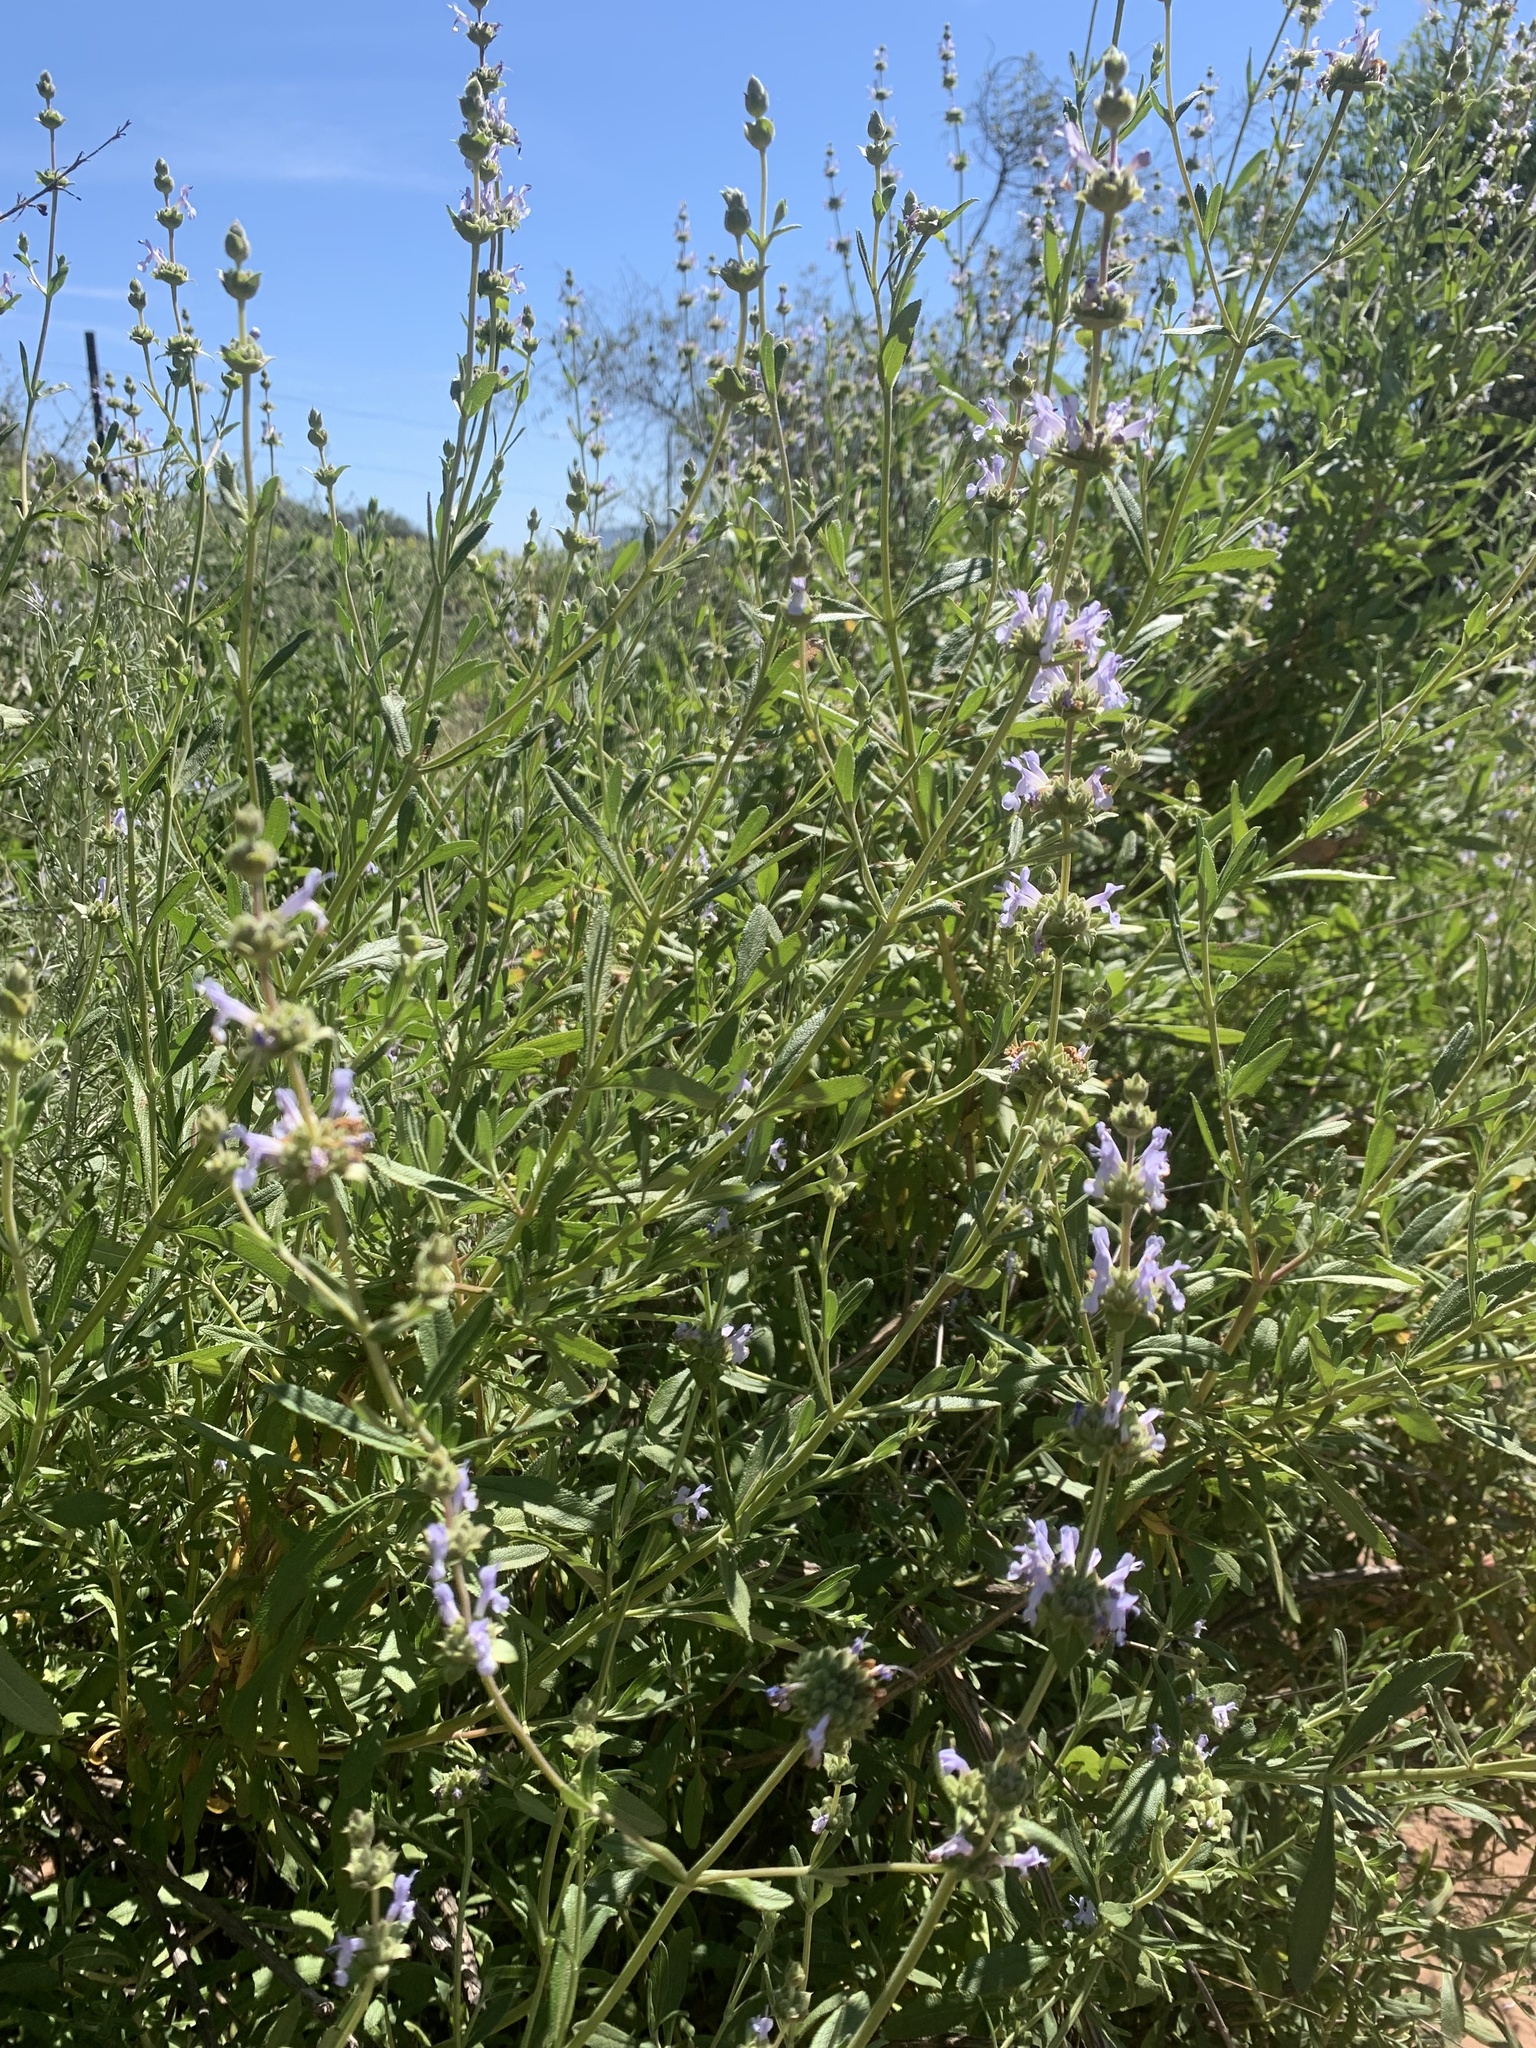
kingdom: Plantae
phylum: Tracheophyta
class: Magnoliopsida
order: Lamiales
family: Lamiaceae
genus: Salvia
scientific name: Salvia mellifera
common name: Black sage
